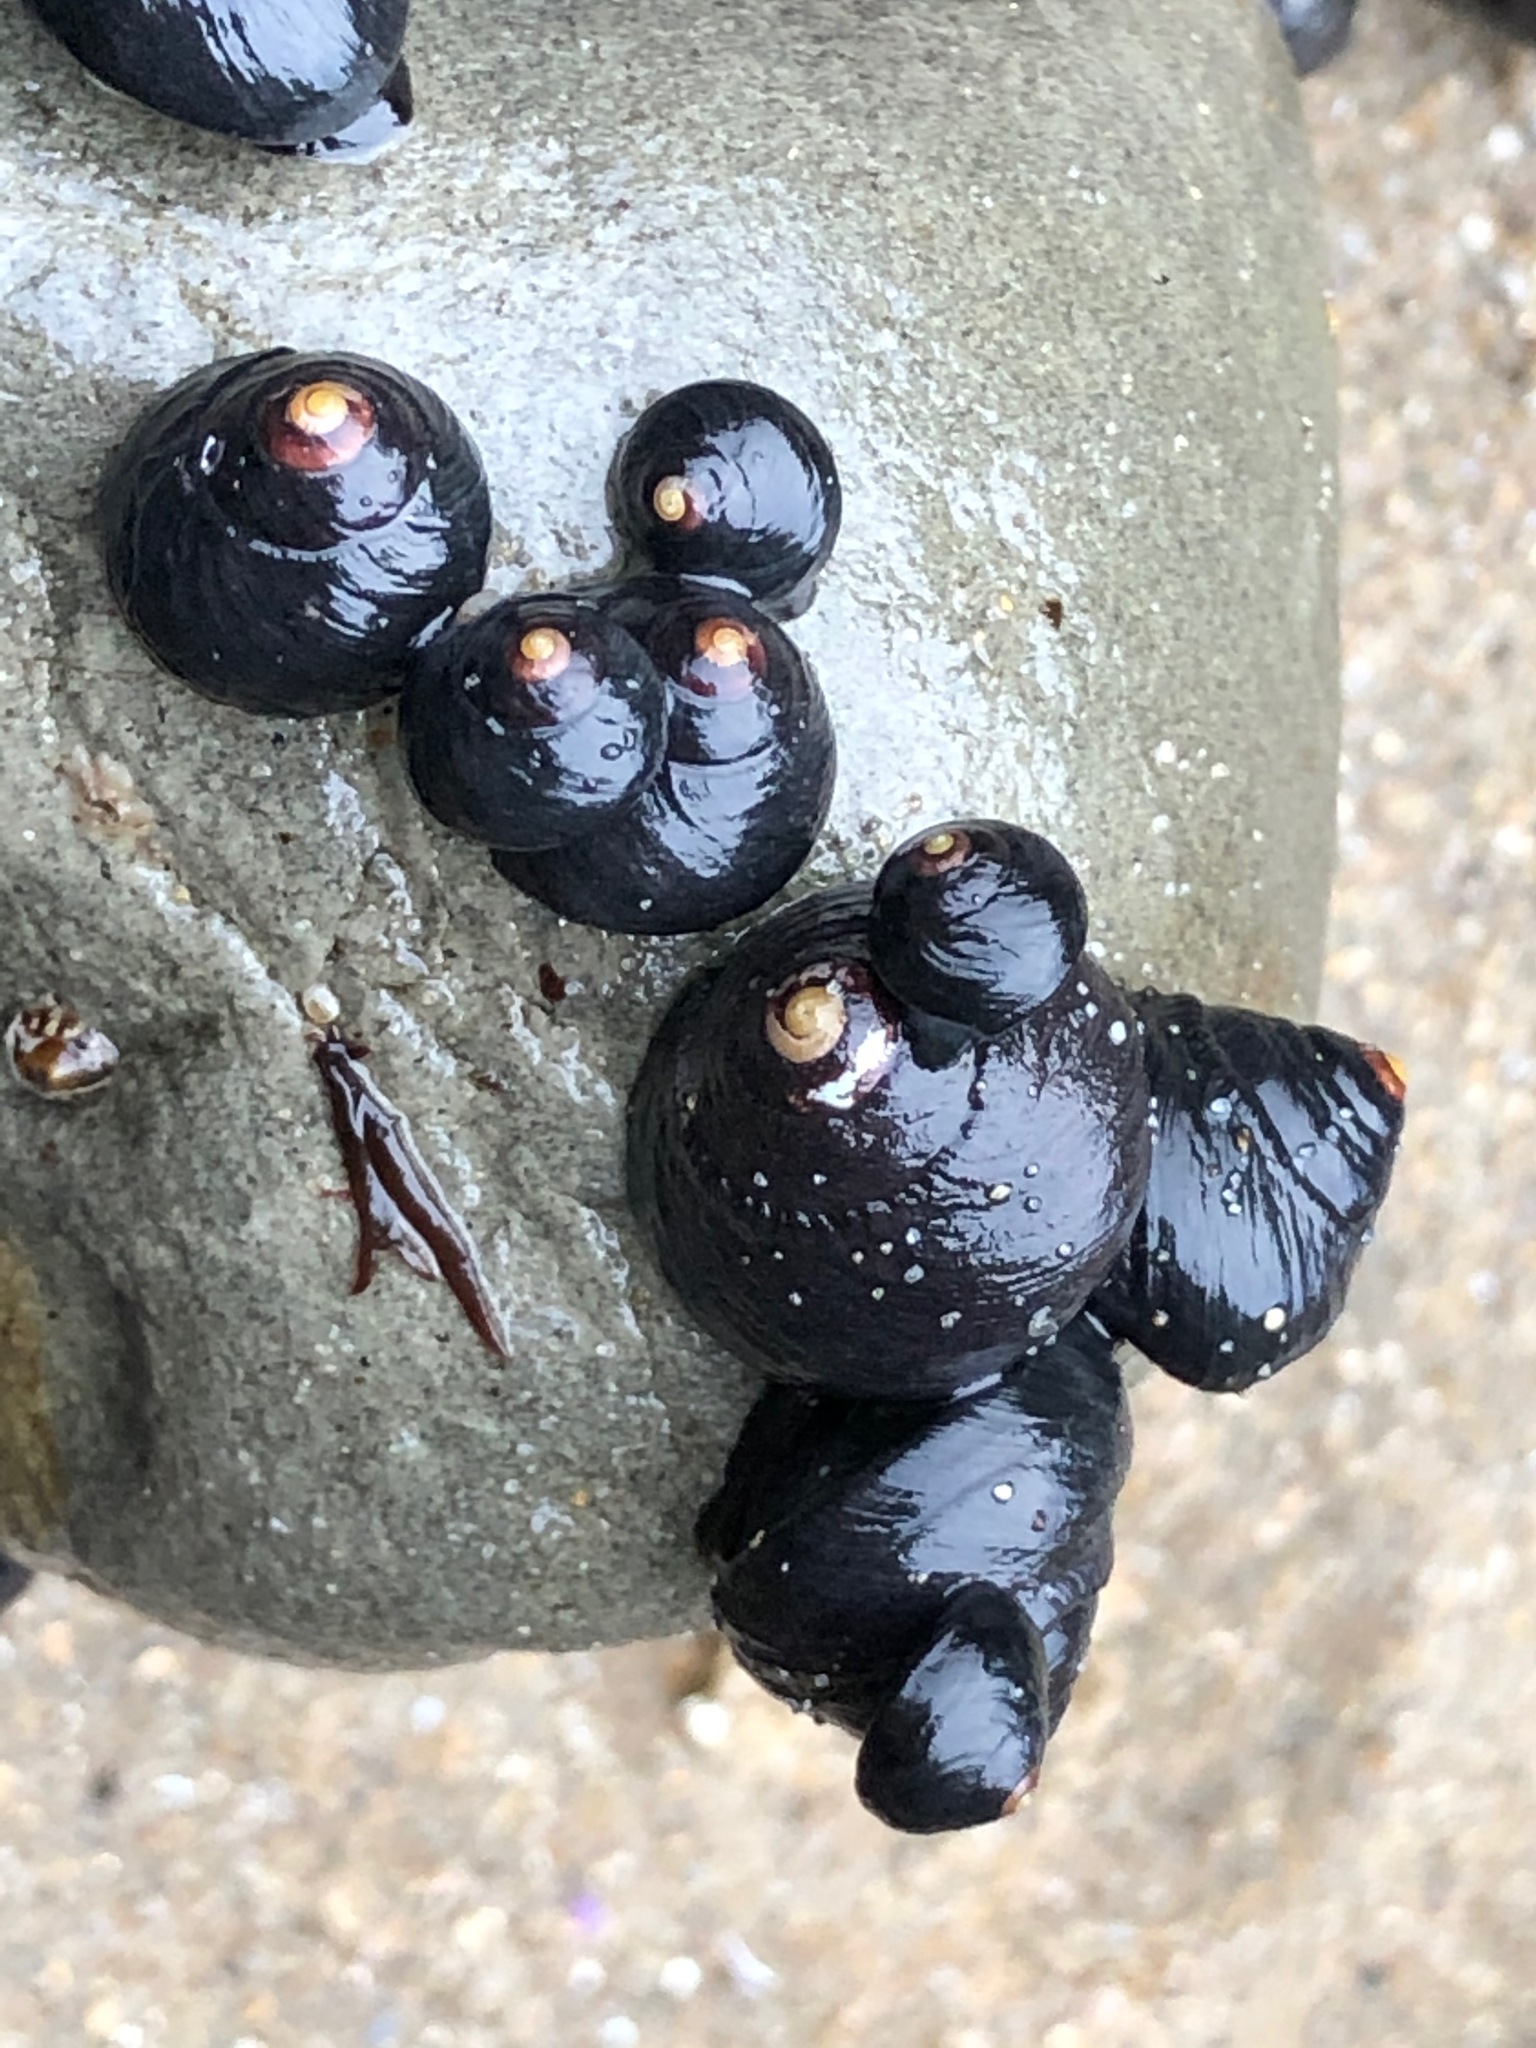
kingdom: Animalia
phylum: Mollusca
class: Gastropoda
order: Trochida
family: Tegulidae
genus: Tegula
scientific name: Tegula funebralis
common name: Black tegula
